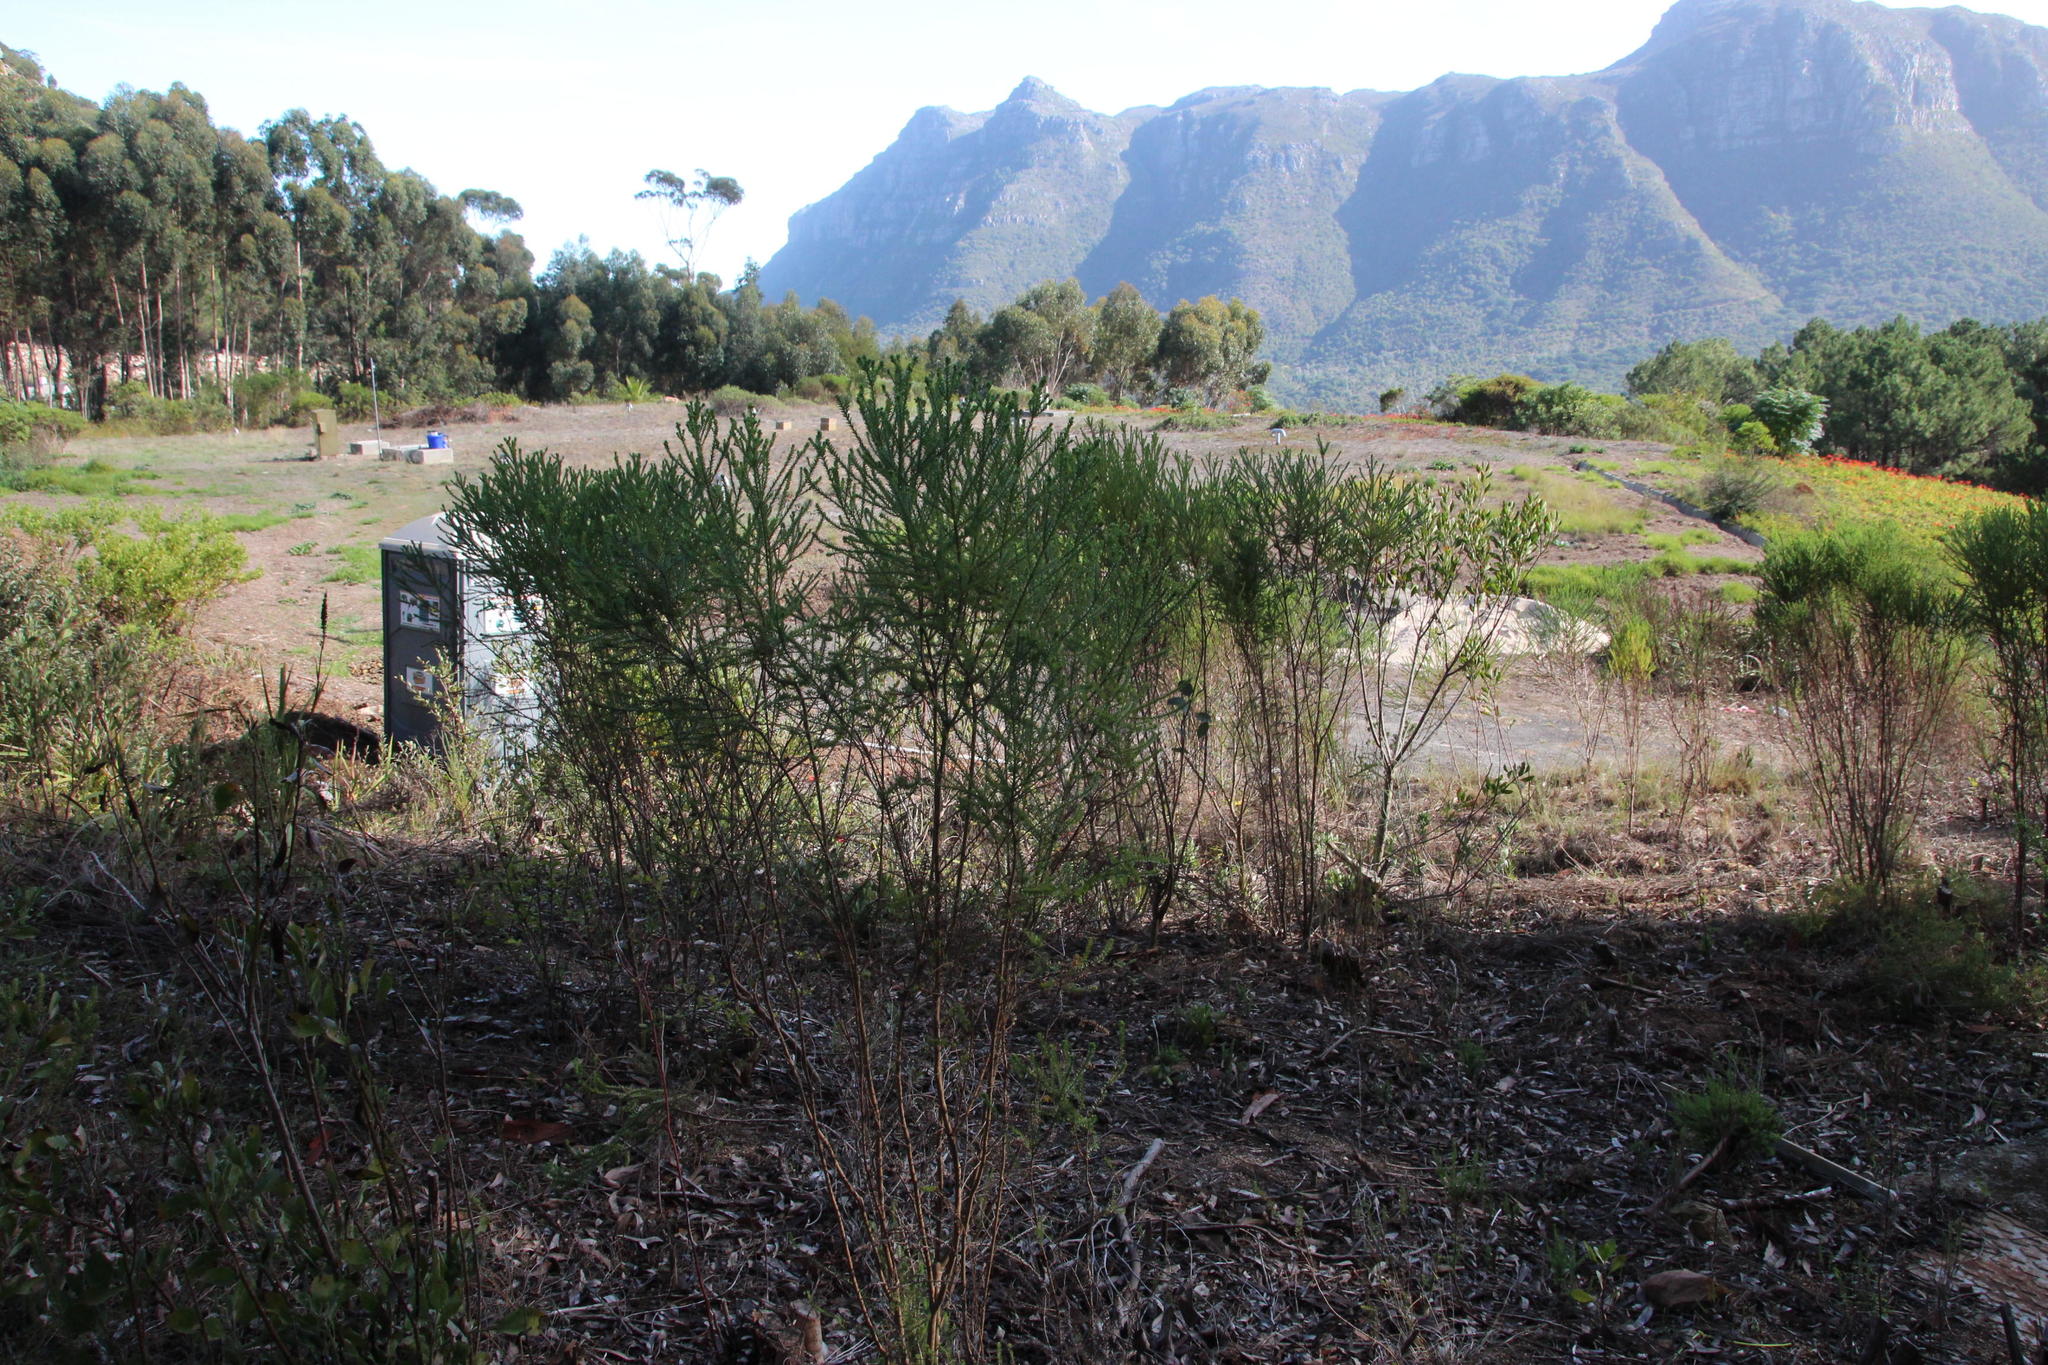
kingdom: Plantae
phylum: Tracheophyta
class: Magnoliopsida
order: Asterales
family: Asteraceae
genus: Euryops
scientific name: Euryops virgineus
